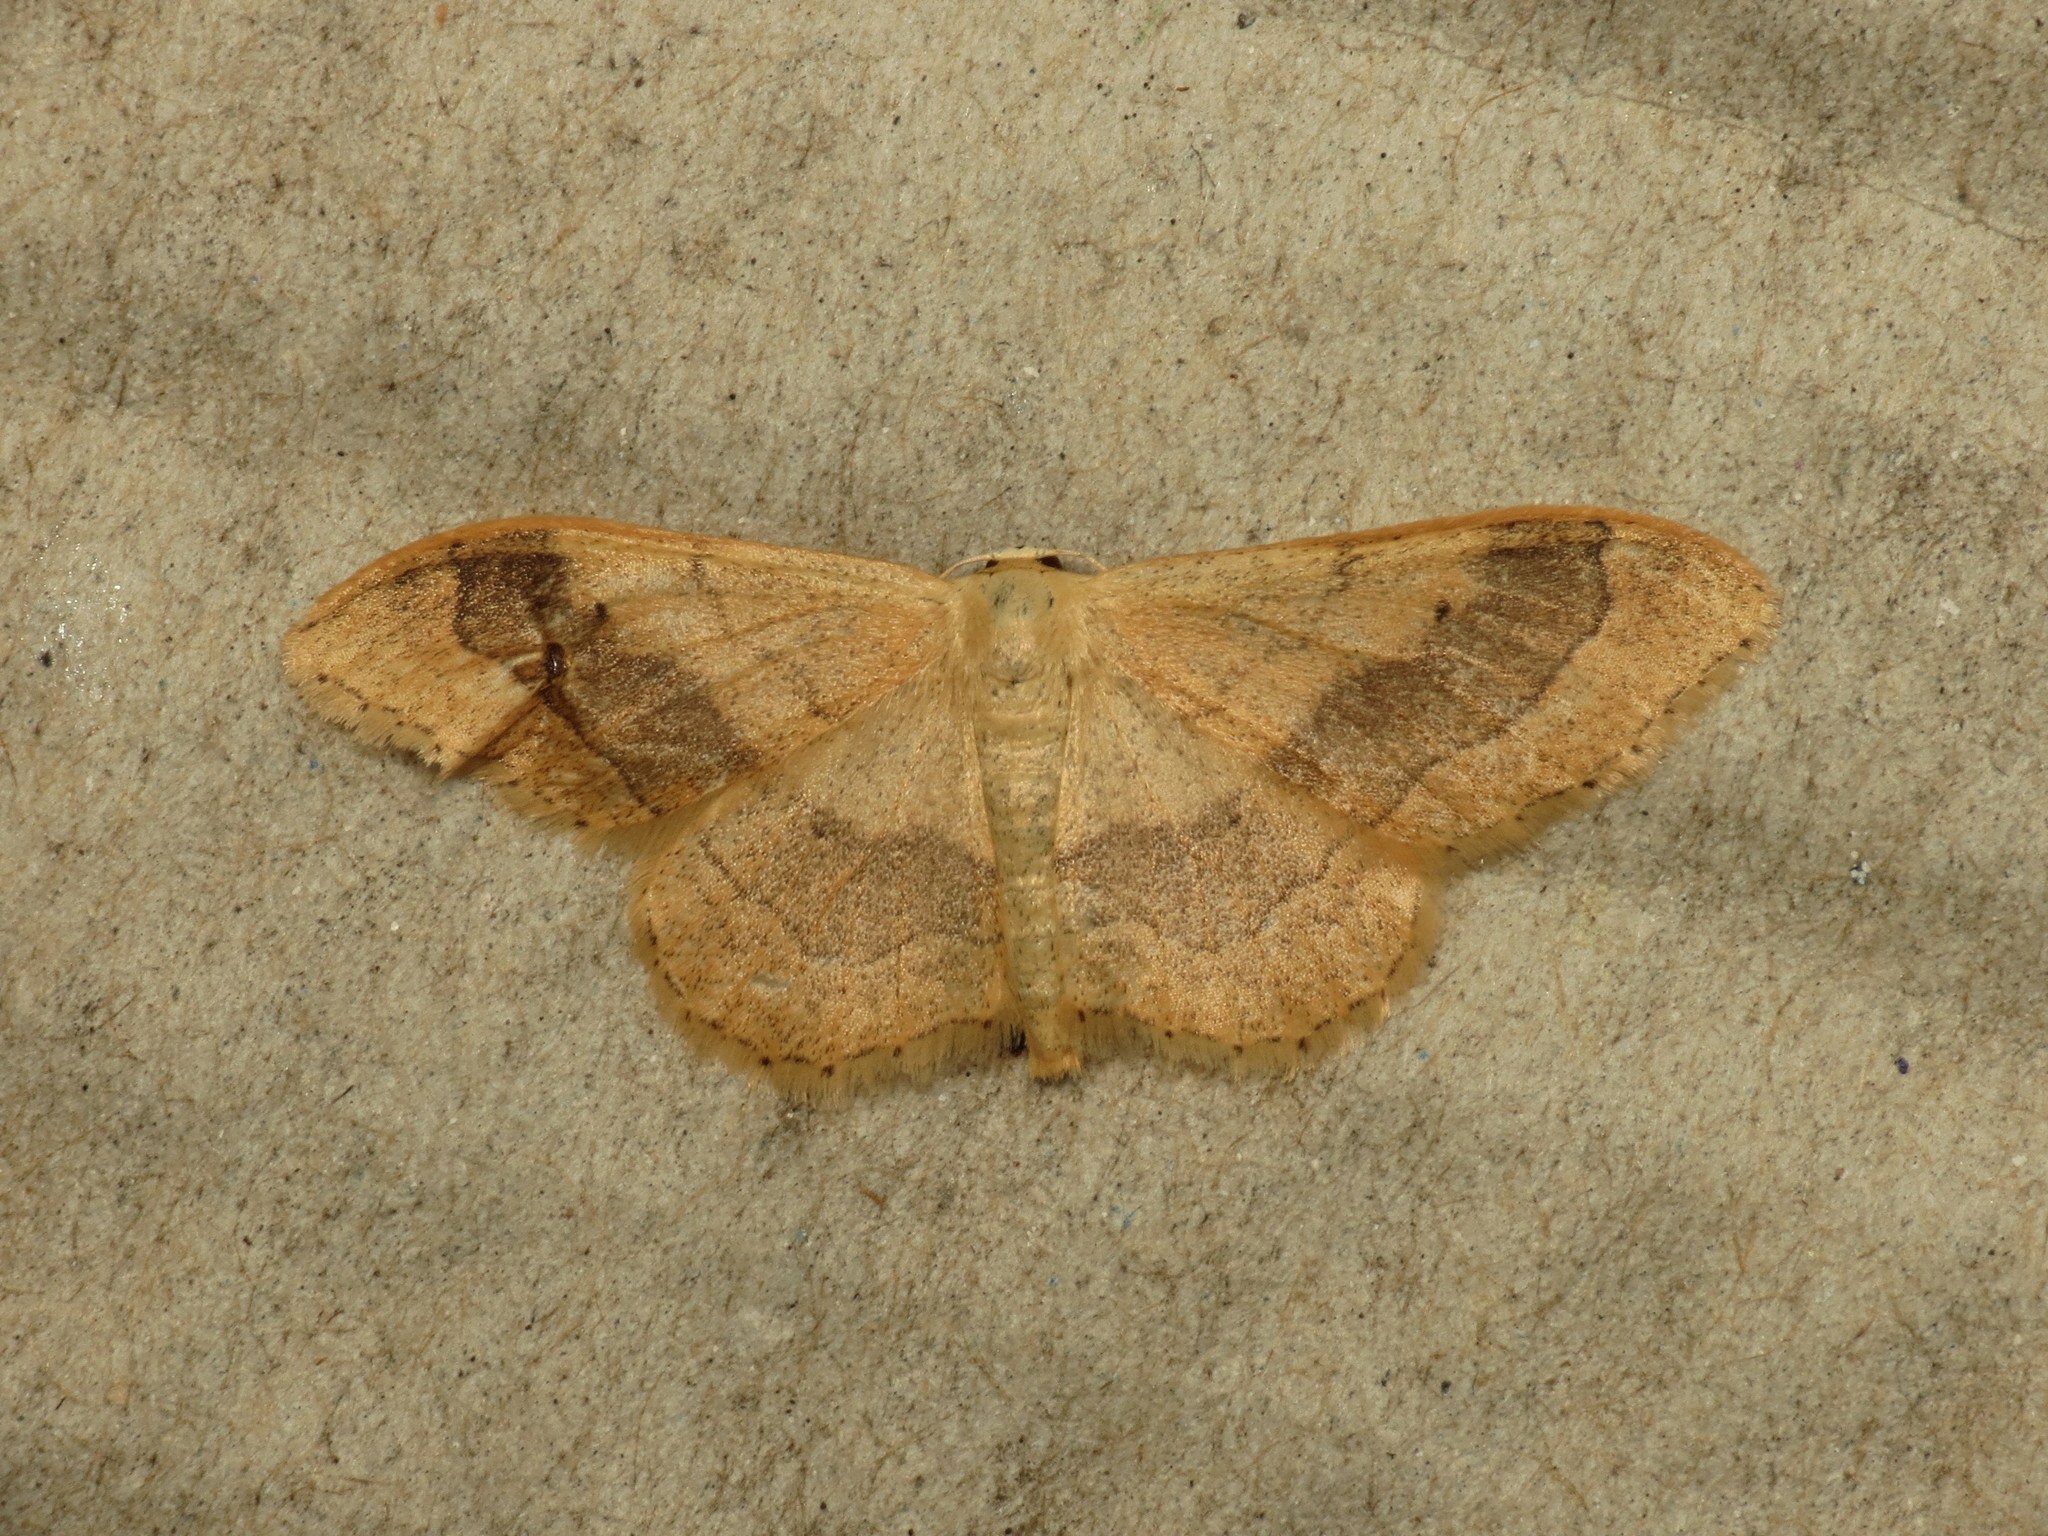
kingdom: Animalia
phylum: Arthropoda
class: Insecta
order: Lepidoptera
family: Geometridae
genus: Idaea
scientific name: Idaea aversata
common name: Riband wave
